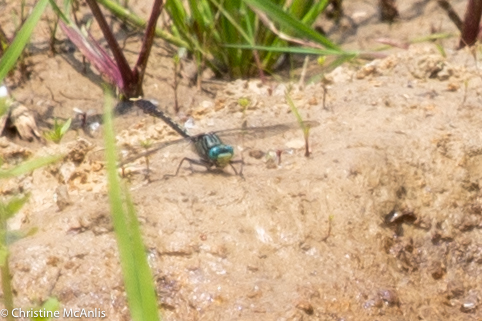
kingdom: Animalia
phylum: Arthropoda
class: Insecta
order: Odonata
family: Gomphidae
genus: Arigomphus
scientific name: Arigomphus villosipes
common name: Unicorn clubtail
